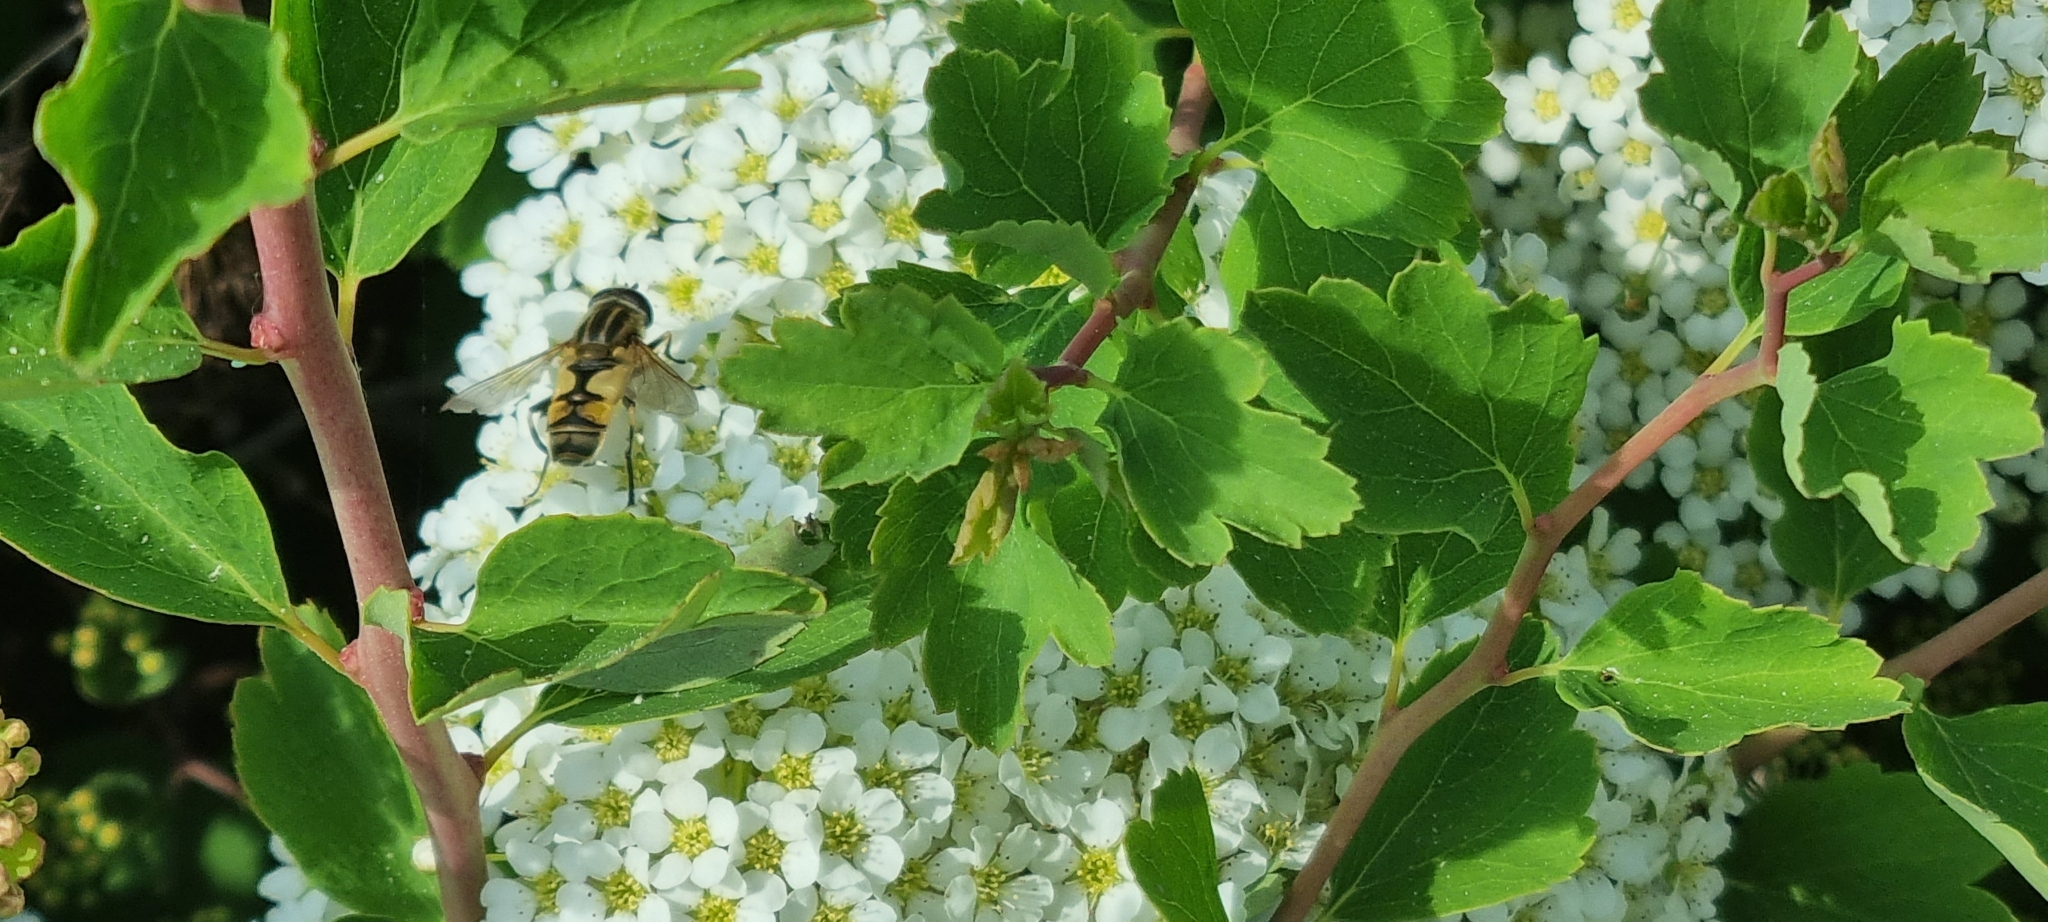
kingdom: Animalia
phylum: Arthropoda
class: Insecta
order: Diptera
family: Syrphidae
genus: Helophilus
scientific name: Helophilus hybridus
